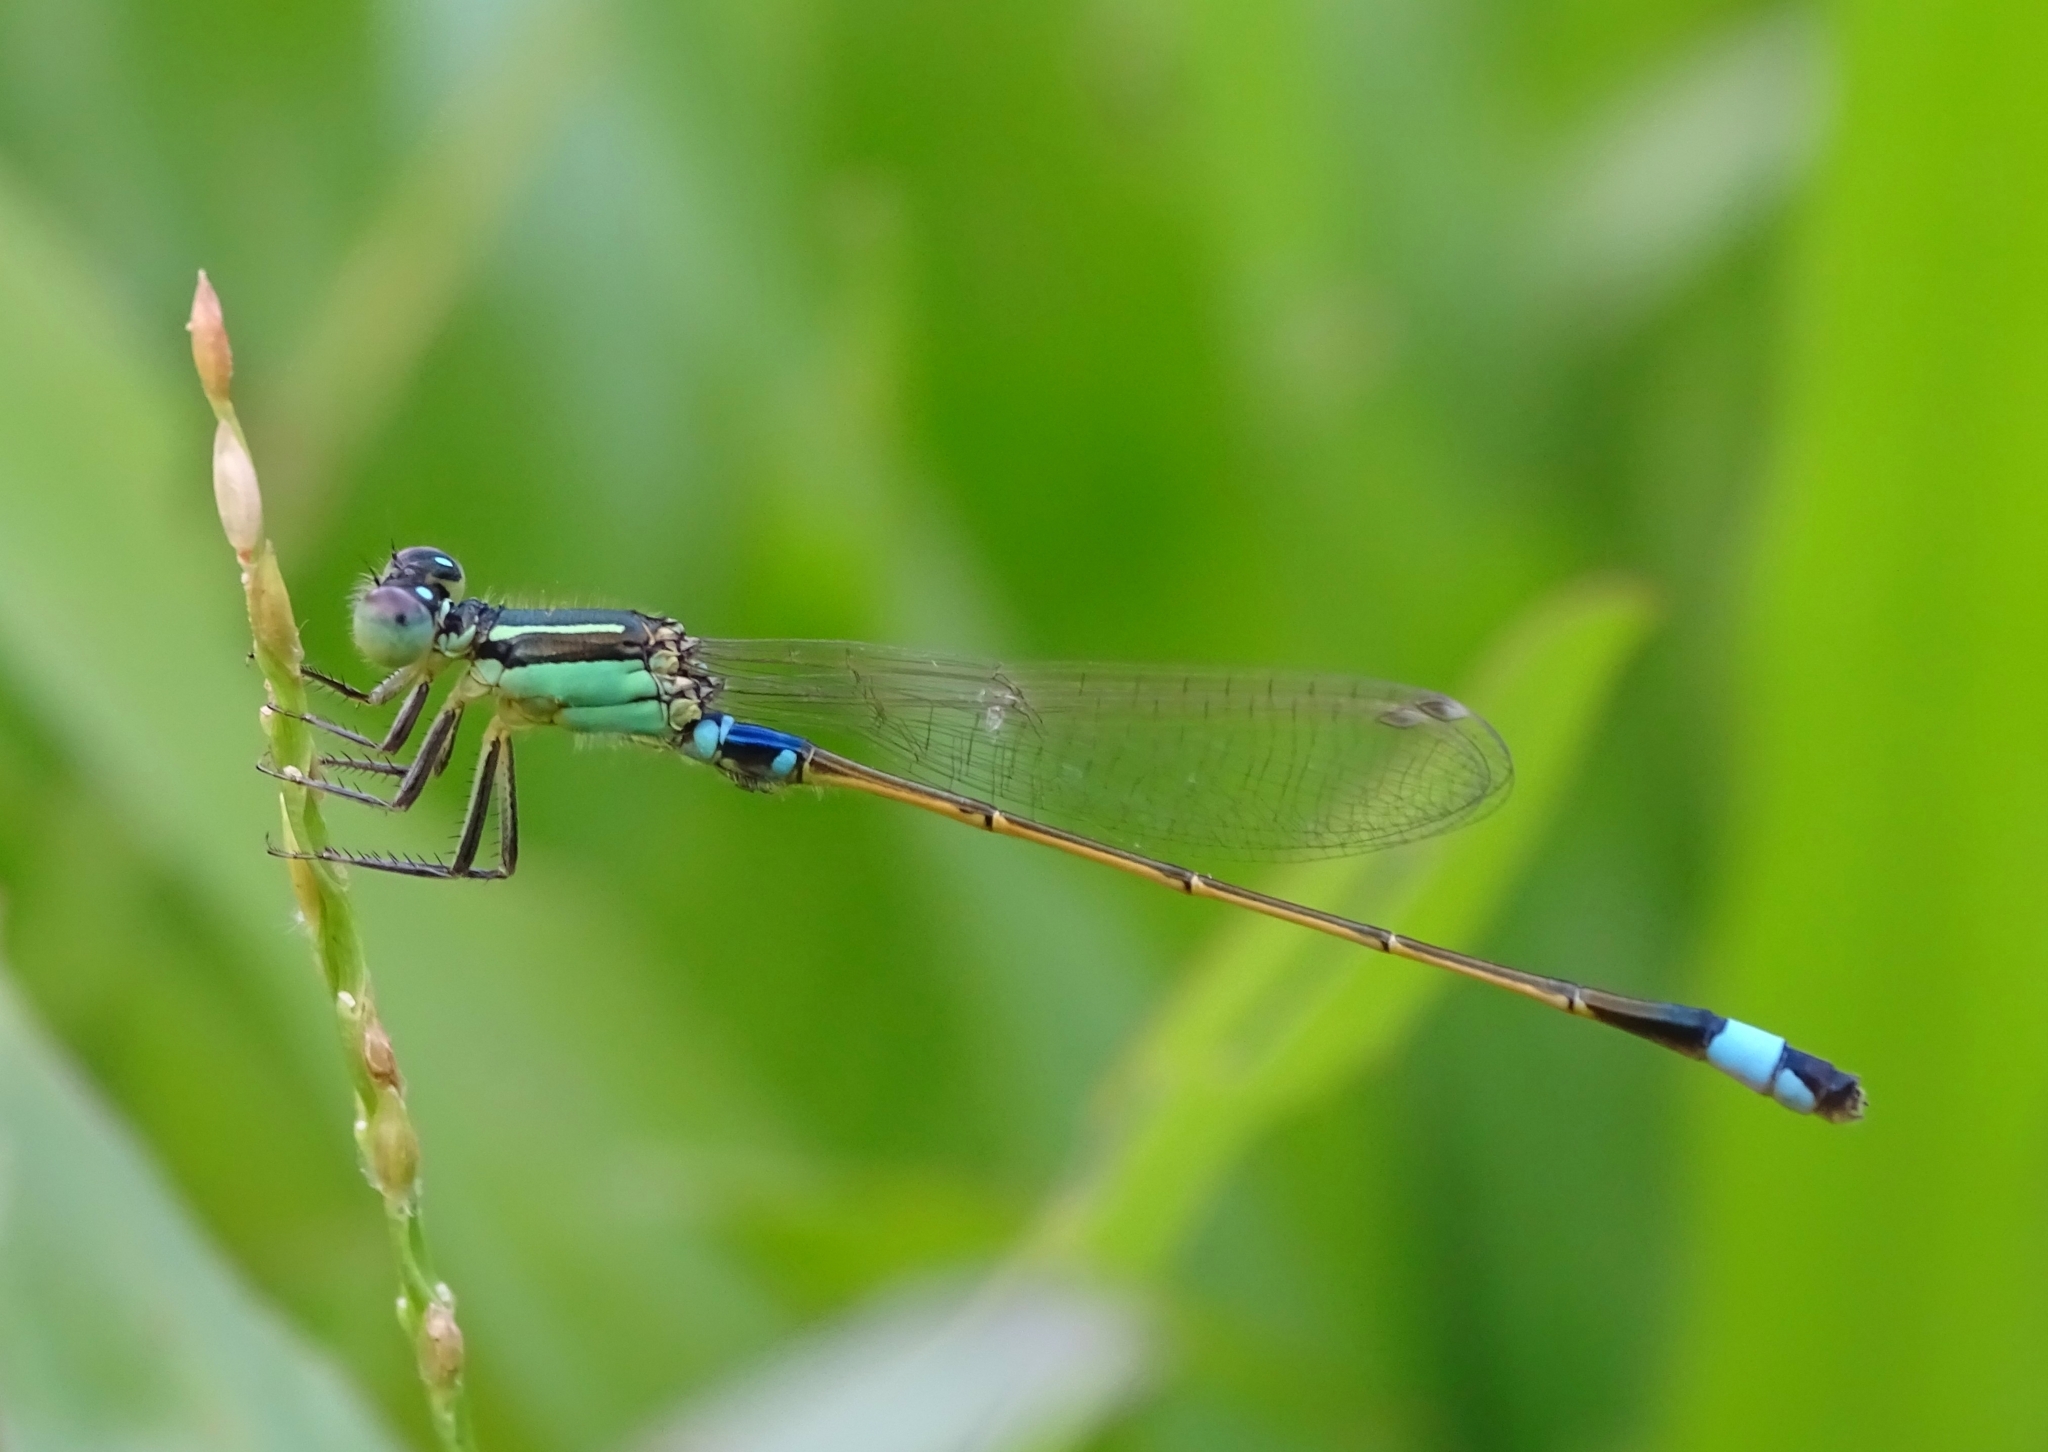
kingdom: Animalia
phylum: Arthropoda
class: Insecta
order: Odonata
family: Coenagrionidae
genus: Ischnura
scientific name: Ischnura senegalensis
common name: Tropical bluetail
